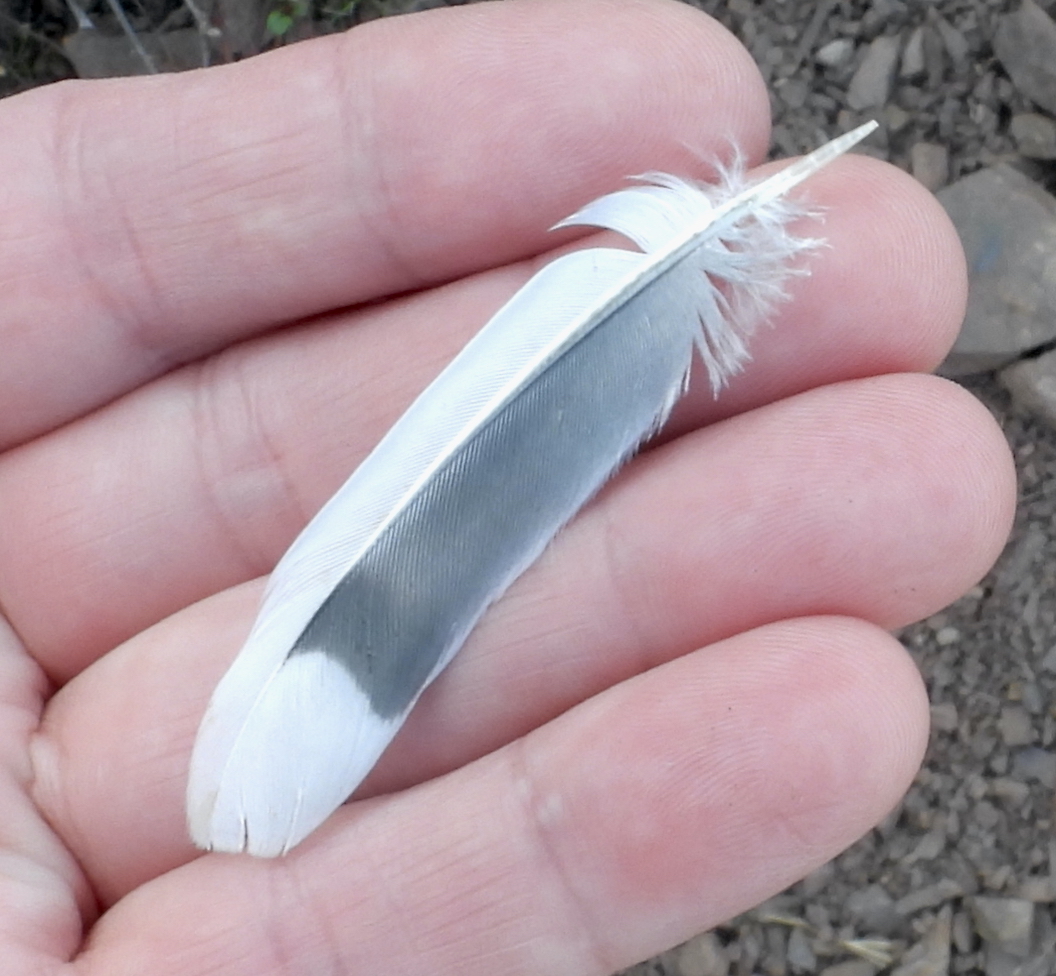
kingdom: Animalia
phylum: Chordata
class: Aves
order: Columbiformes
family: Columbidae
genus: Zenaida
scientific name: Zenaida macroura
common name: Mourning dove
